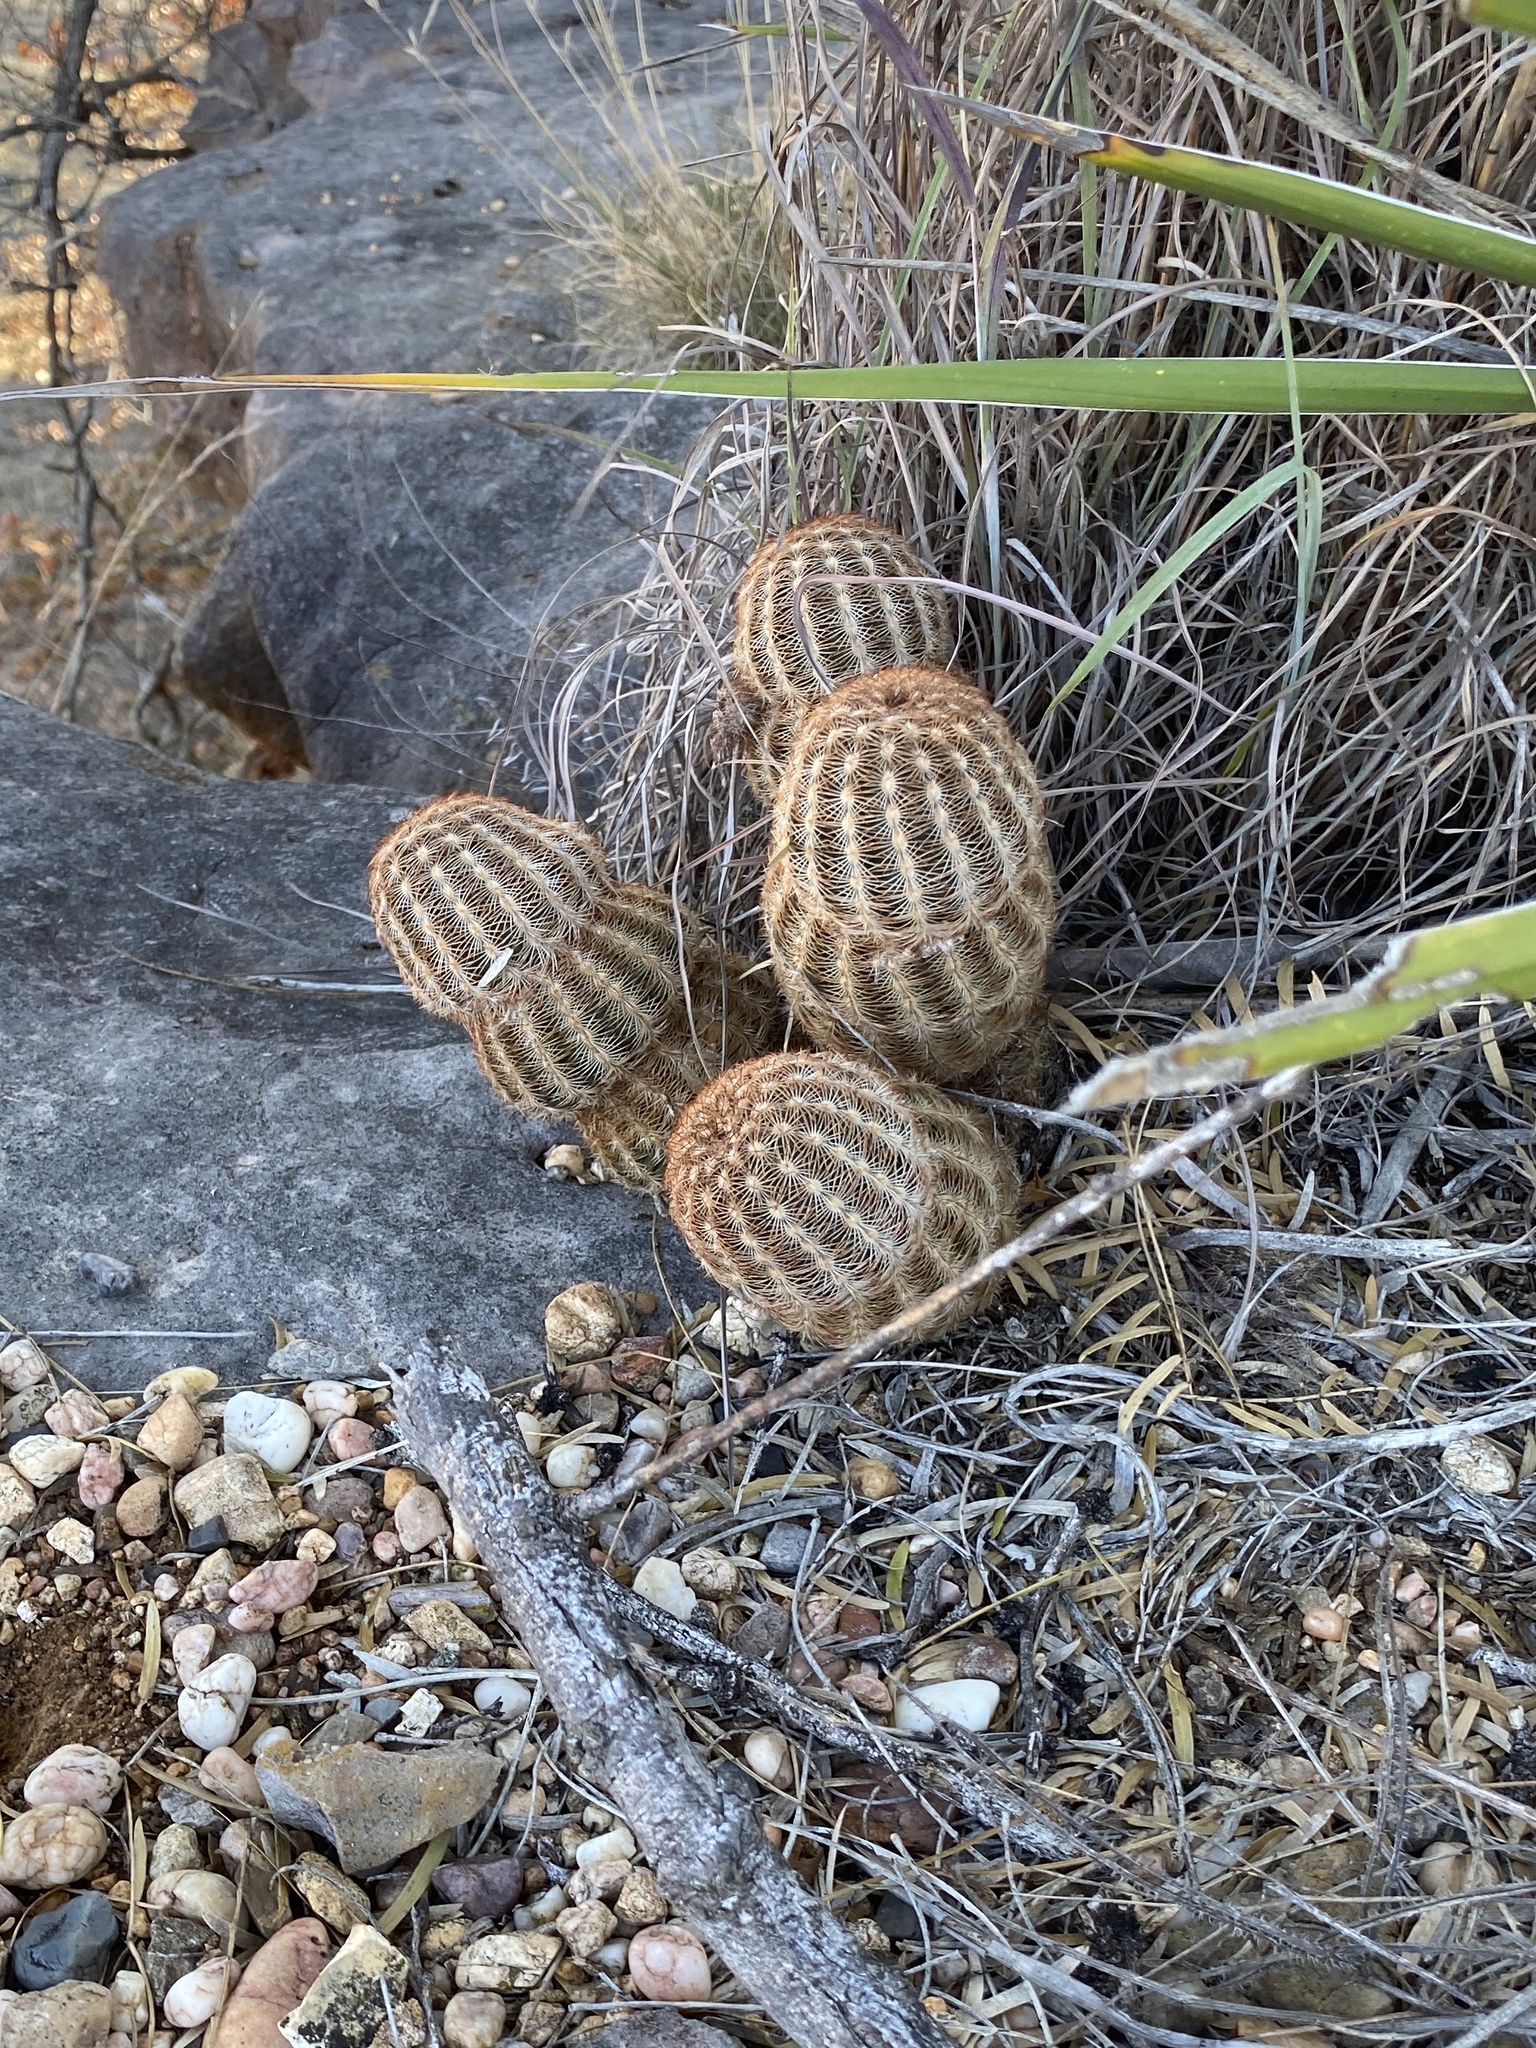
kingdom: Plantae
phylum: Tracheophyta
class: Magnoliopsida
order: Caryophyllales
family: Cactaceae
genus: Echinocereus
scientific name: Echinocereus reichenbachii
